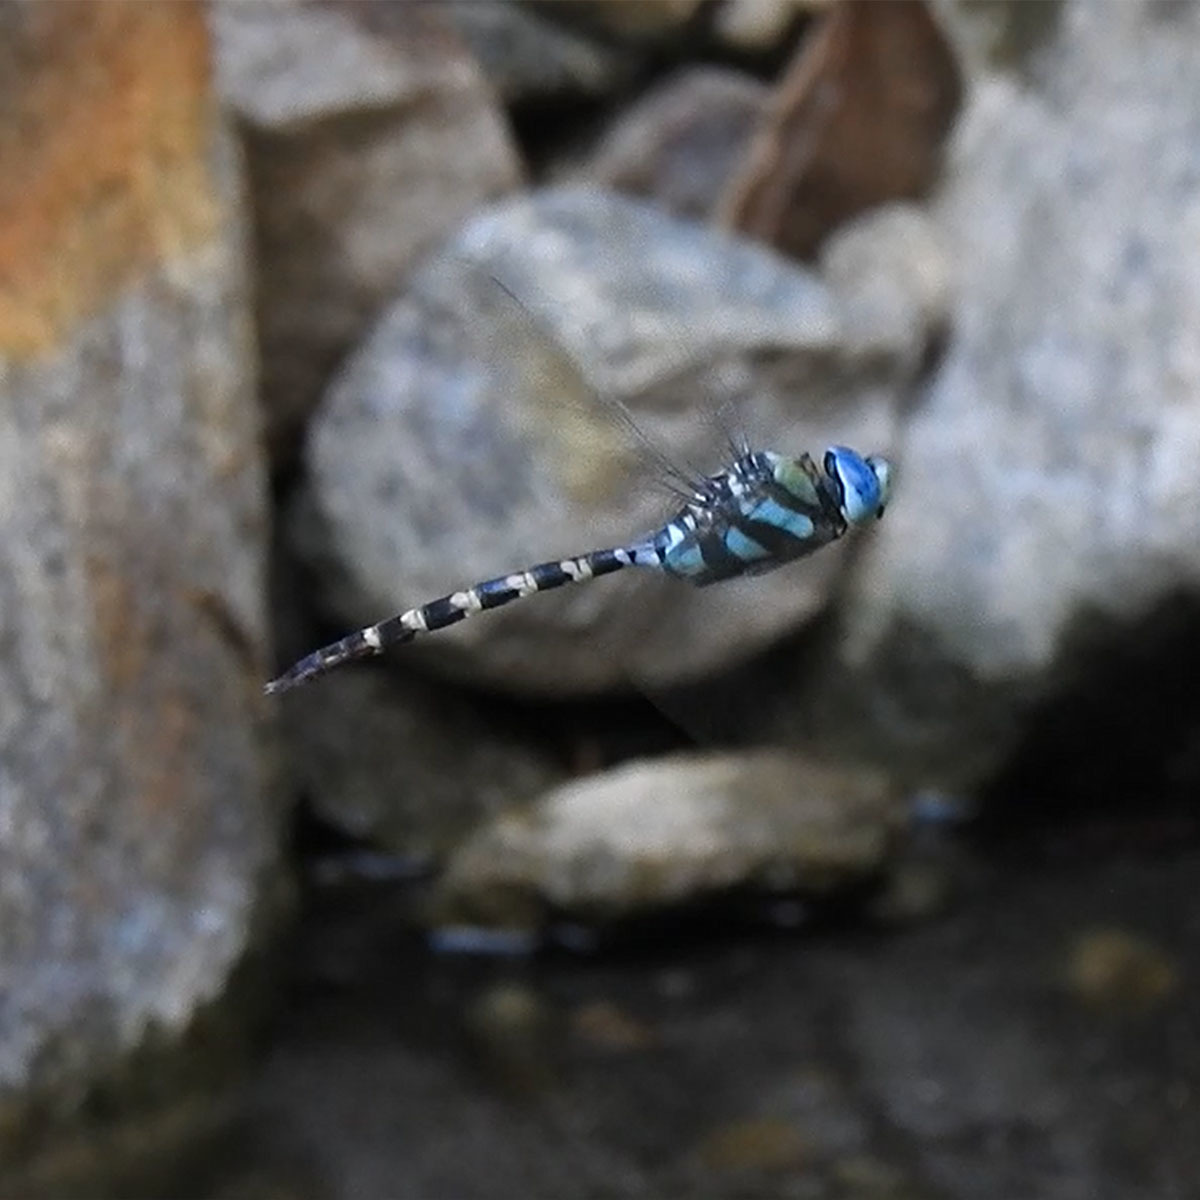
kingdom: Animalia
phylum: Arthropoda
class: Insecta
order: Odonata
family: Aeshnidae
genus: Anax
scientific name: Anax immaculifrons
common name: Magnificent emperor
